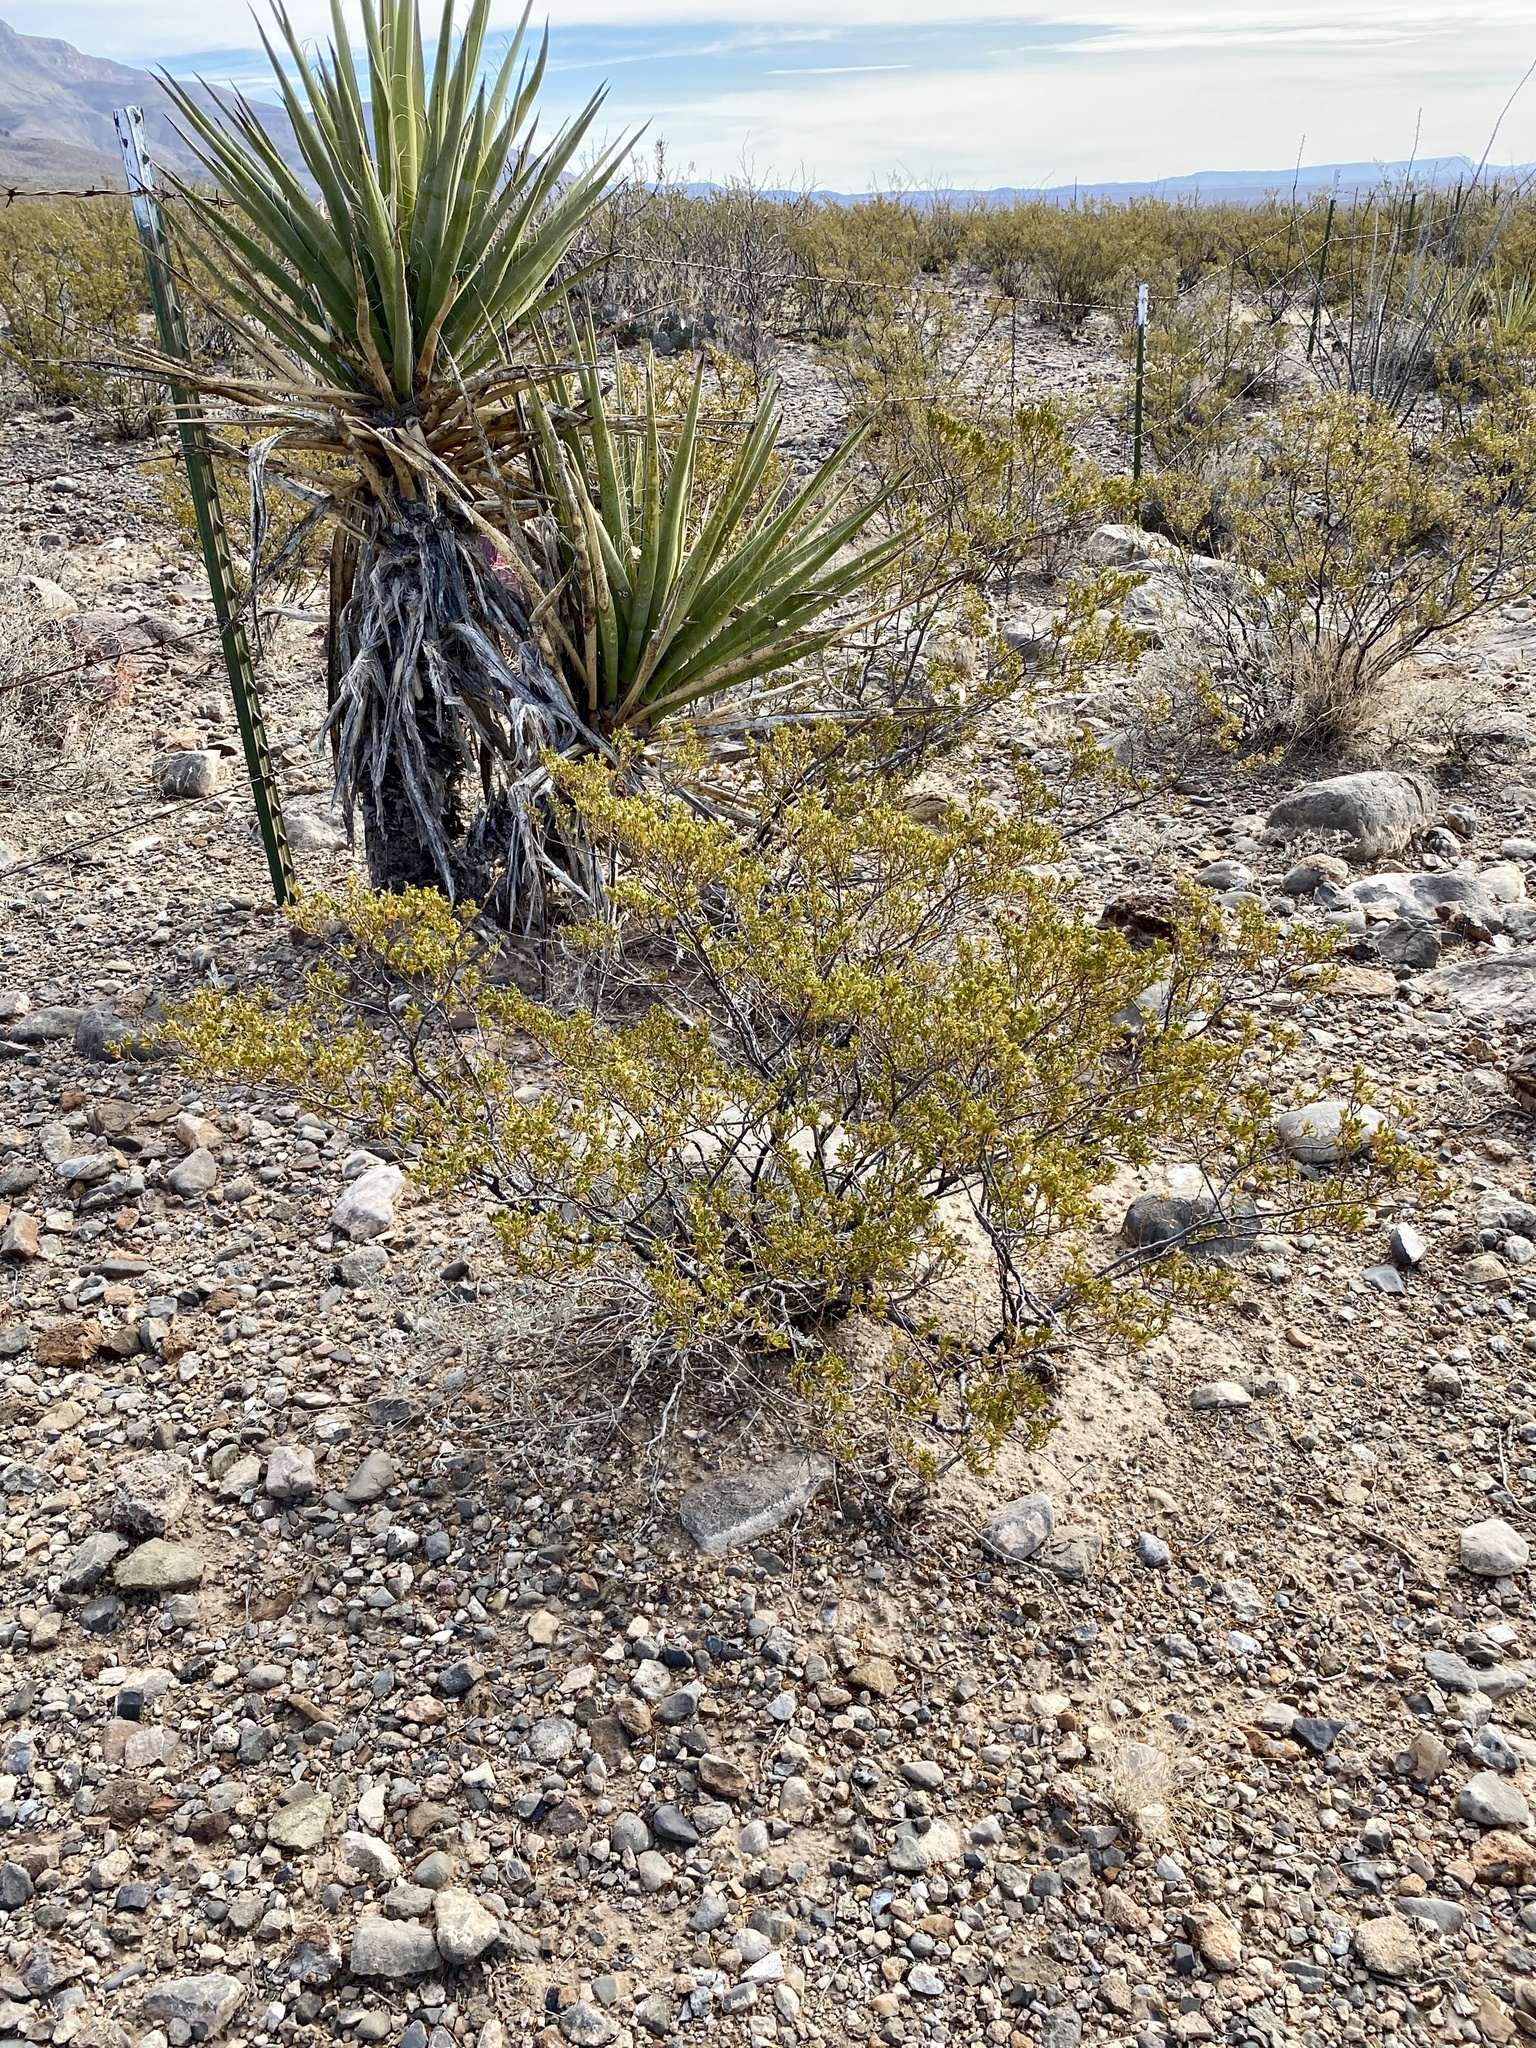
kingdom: Plantae
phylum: Tracheophyta
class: Magnoliopsida
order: Zygophyllales
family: Zygophyllaceae
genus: Larrea
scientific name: Larrea tridentata
